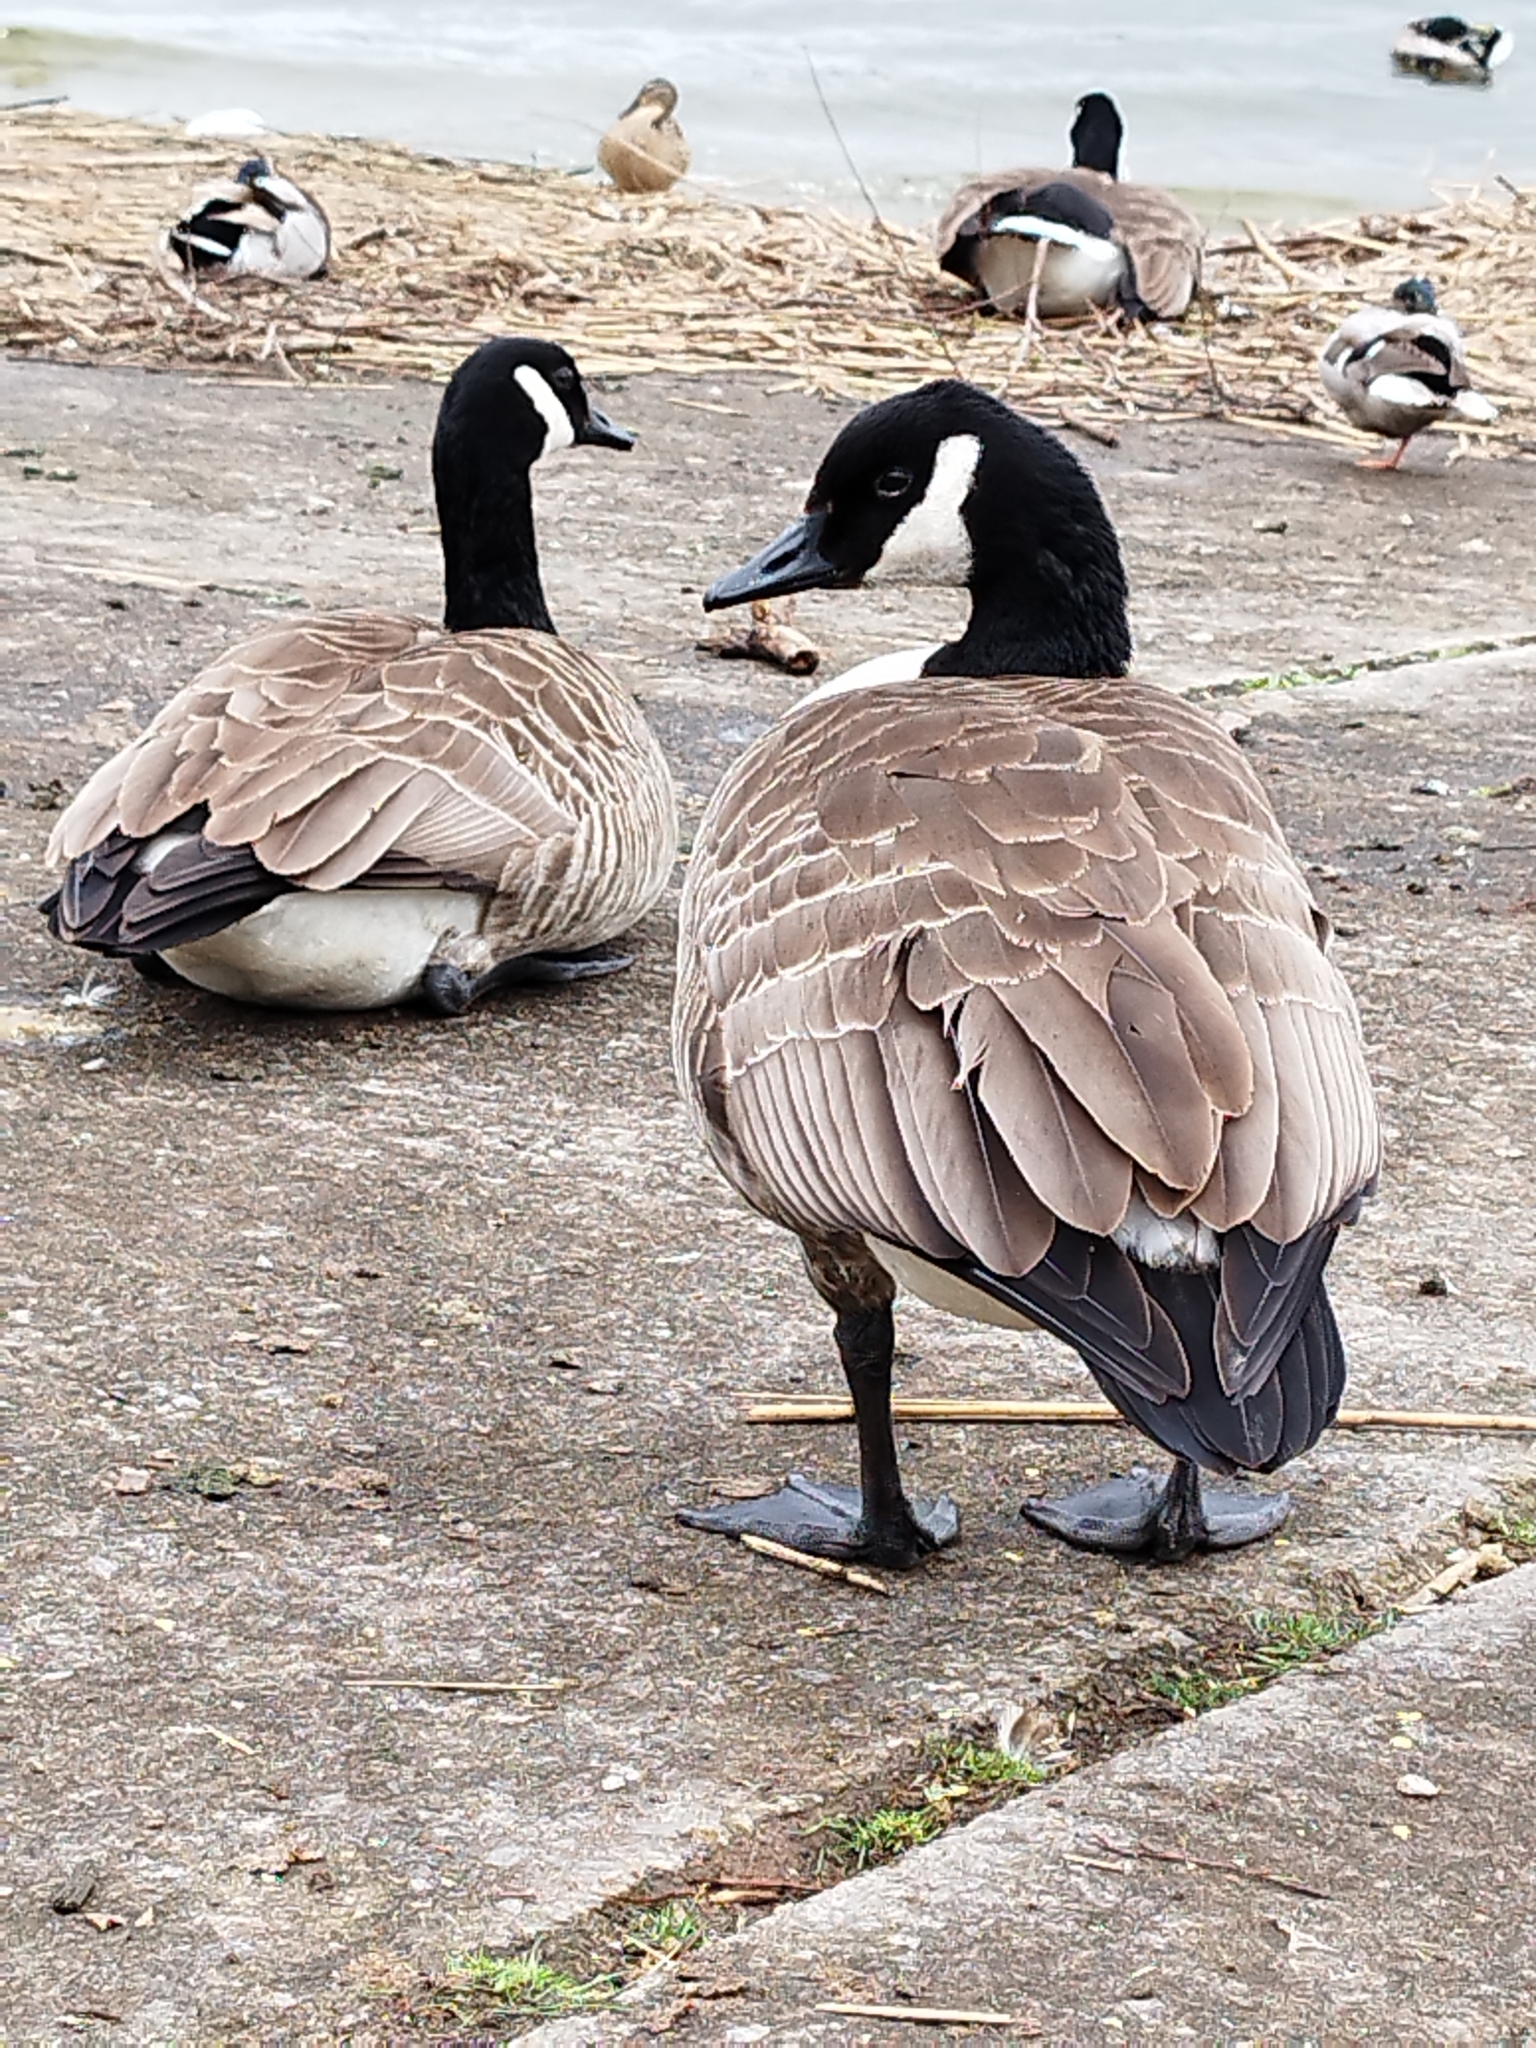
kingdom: Animalia
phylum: Chordata
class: Aves
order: Anseriformes
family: Anatidae
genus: Branta
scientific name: Branta canadensis
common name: Canada goose
